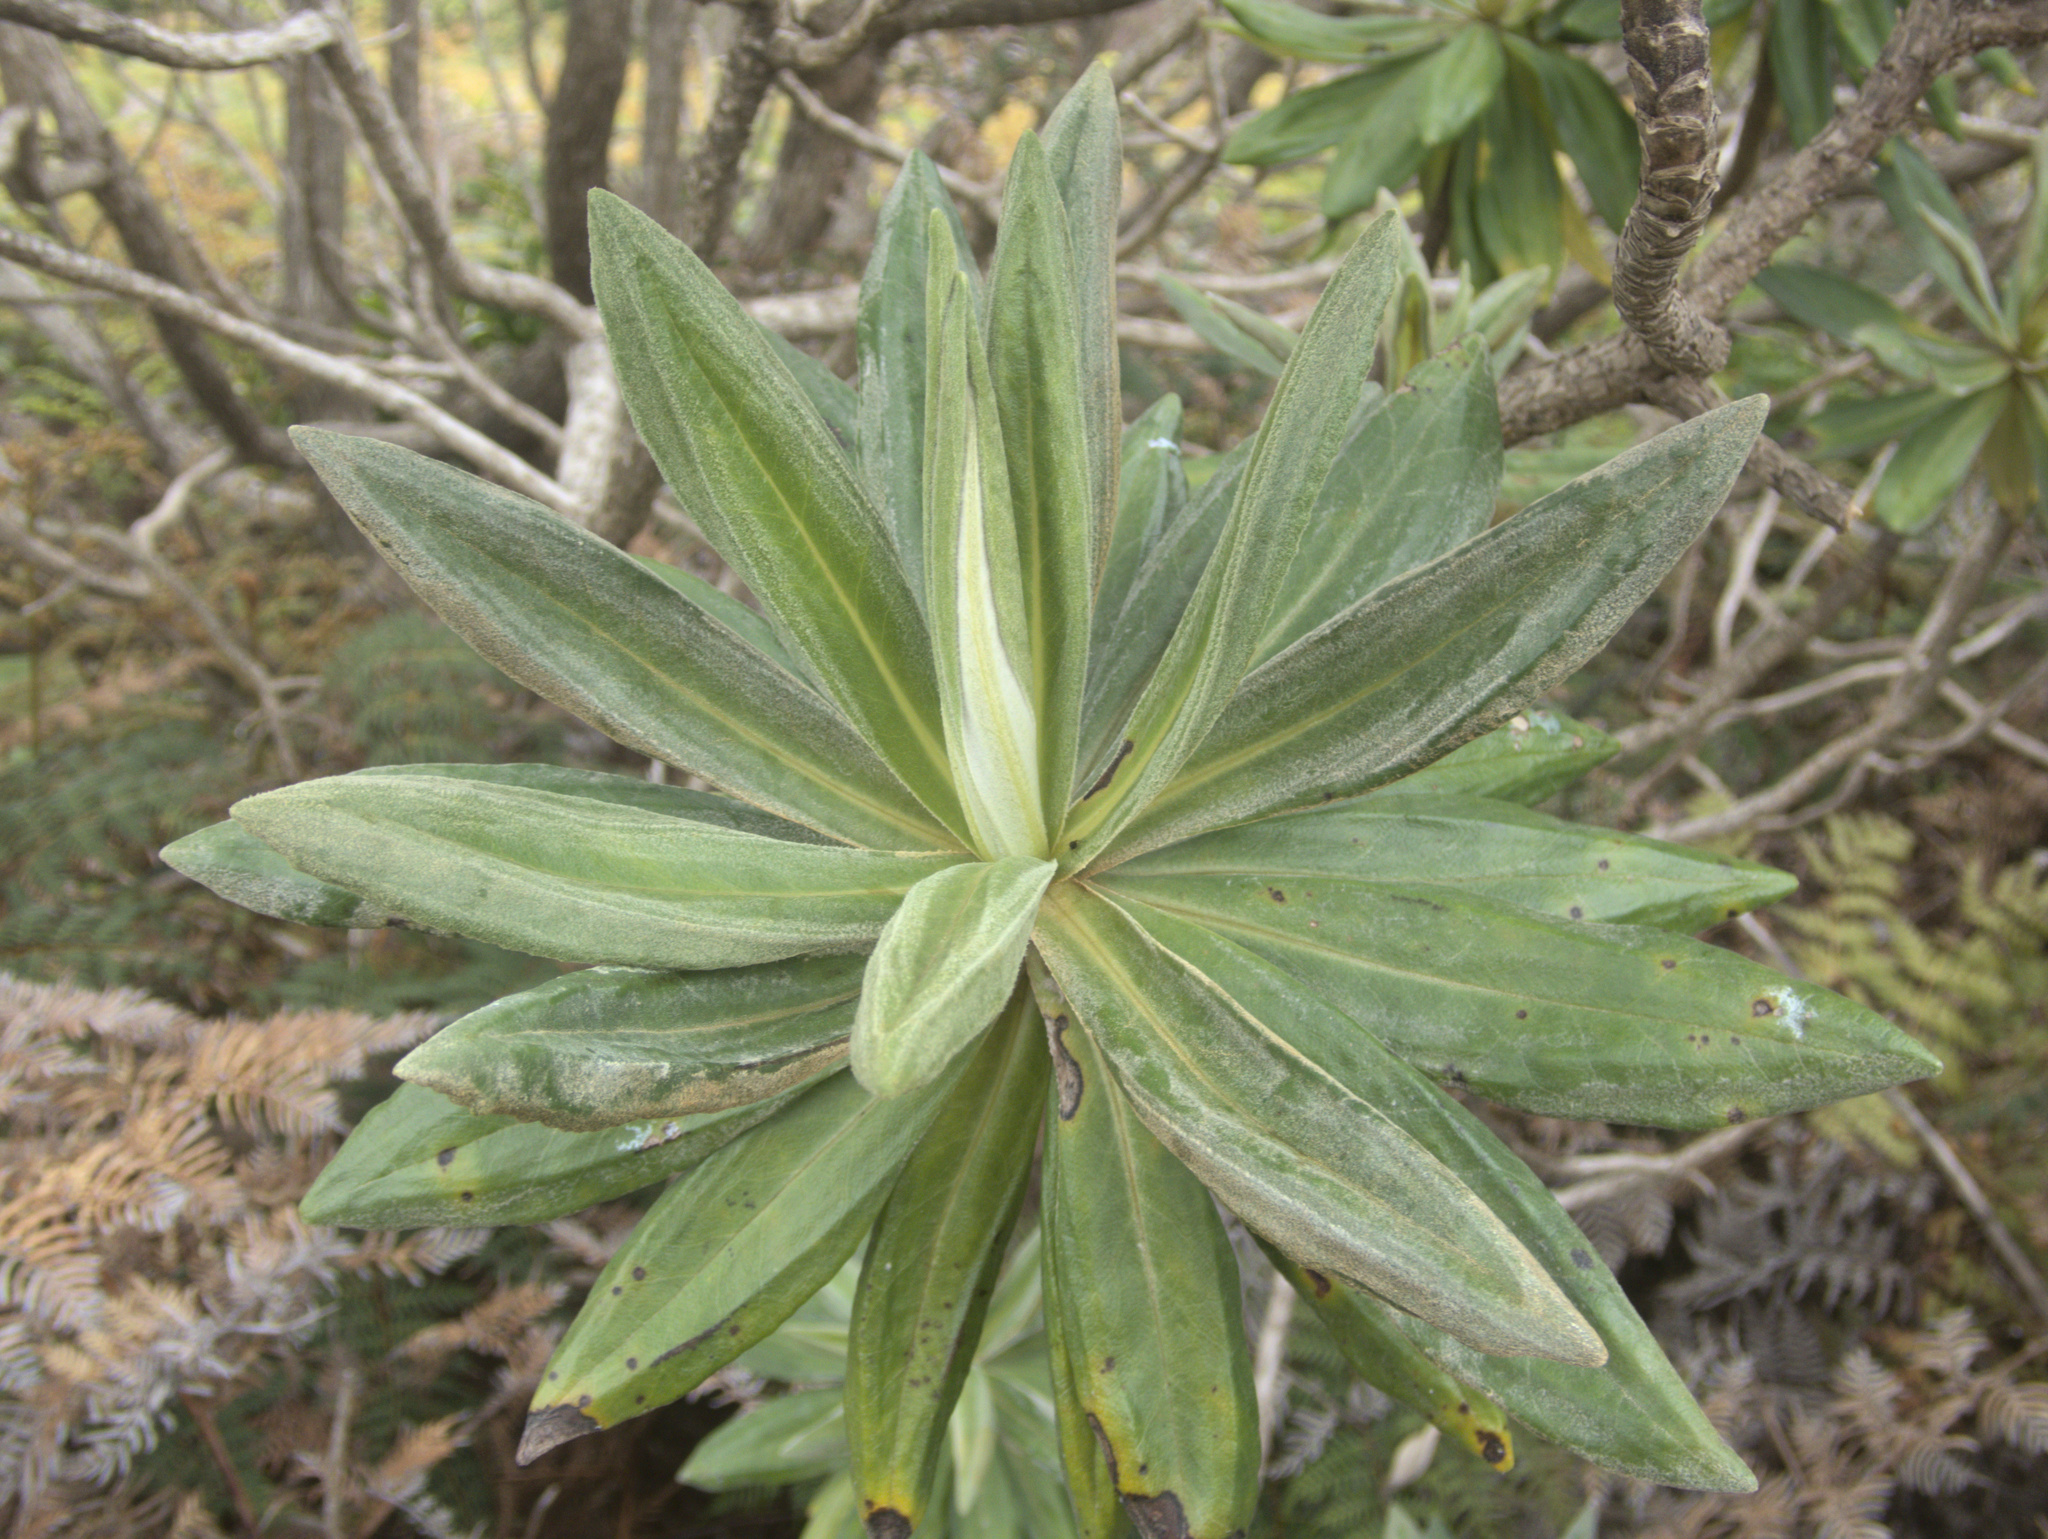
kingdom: Plantae
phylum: Tracheophyta
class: Magnoliopsida
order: Asterales
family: Asteraceae
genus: Brachyglottis
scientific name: Brachyglottis huntii
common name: Chatham island christmas tree
